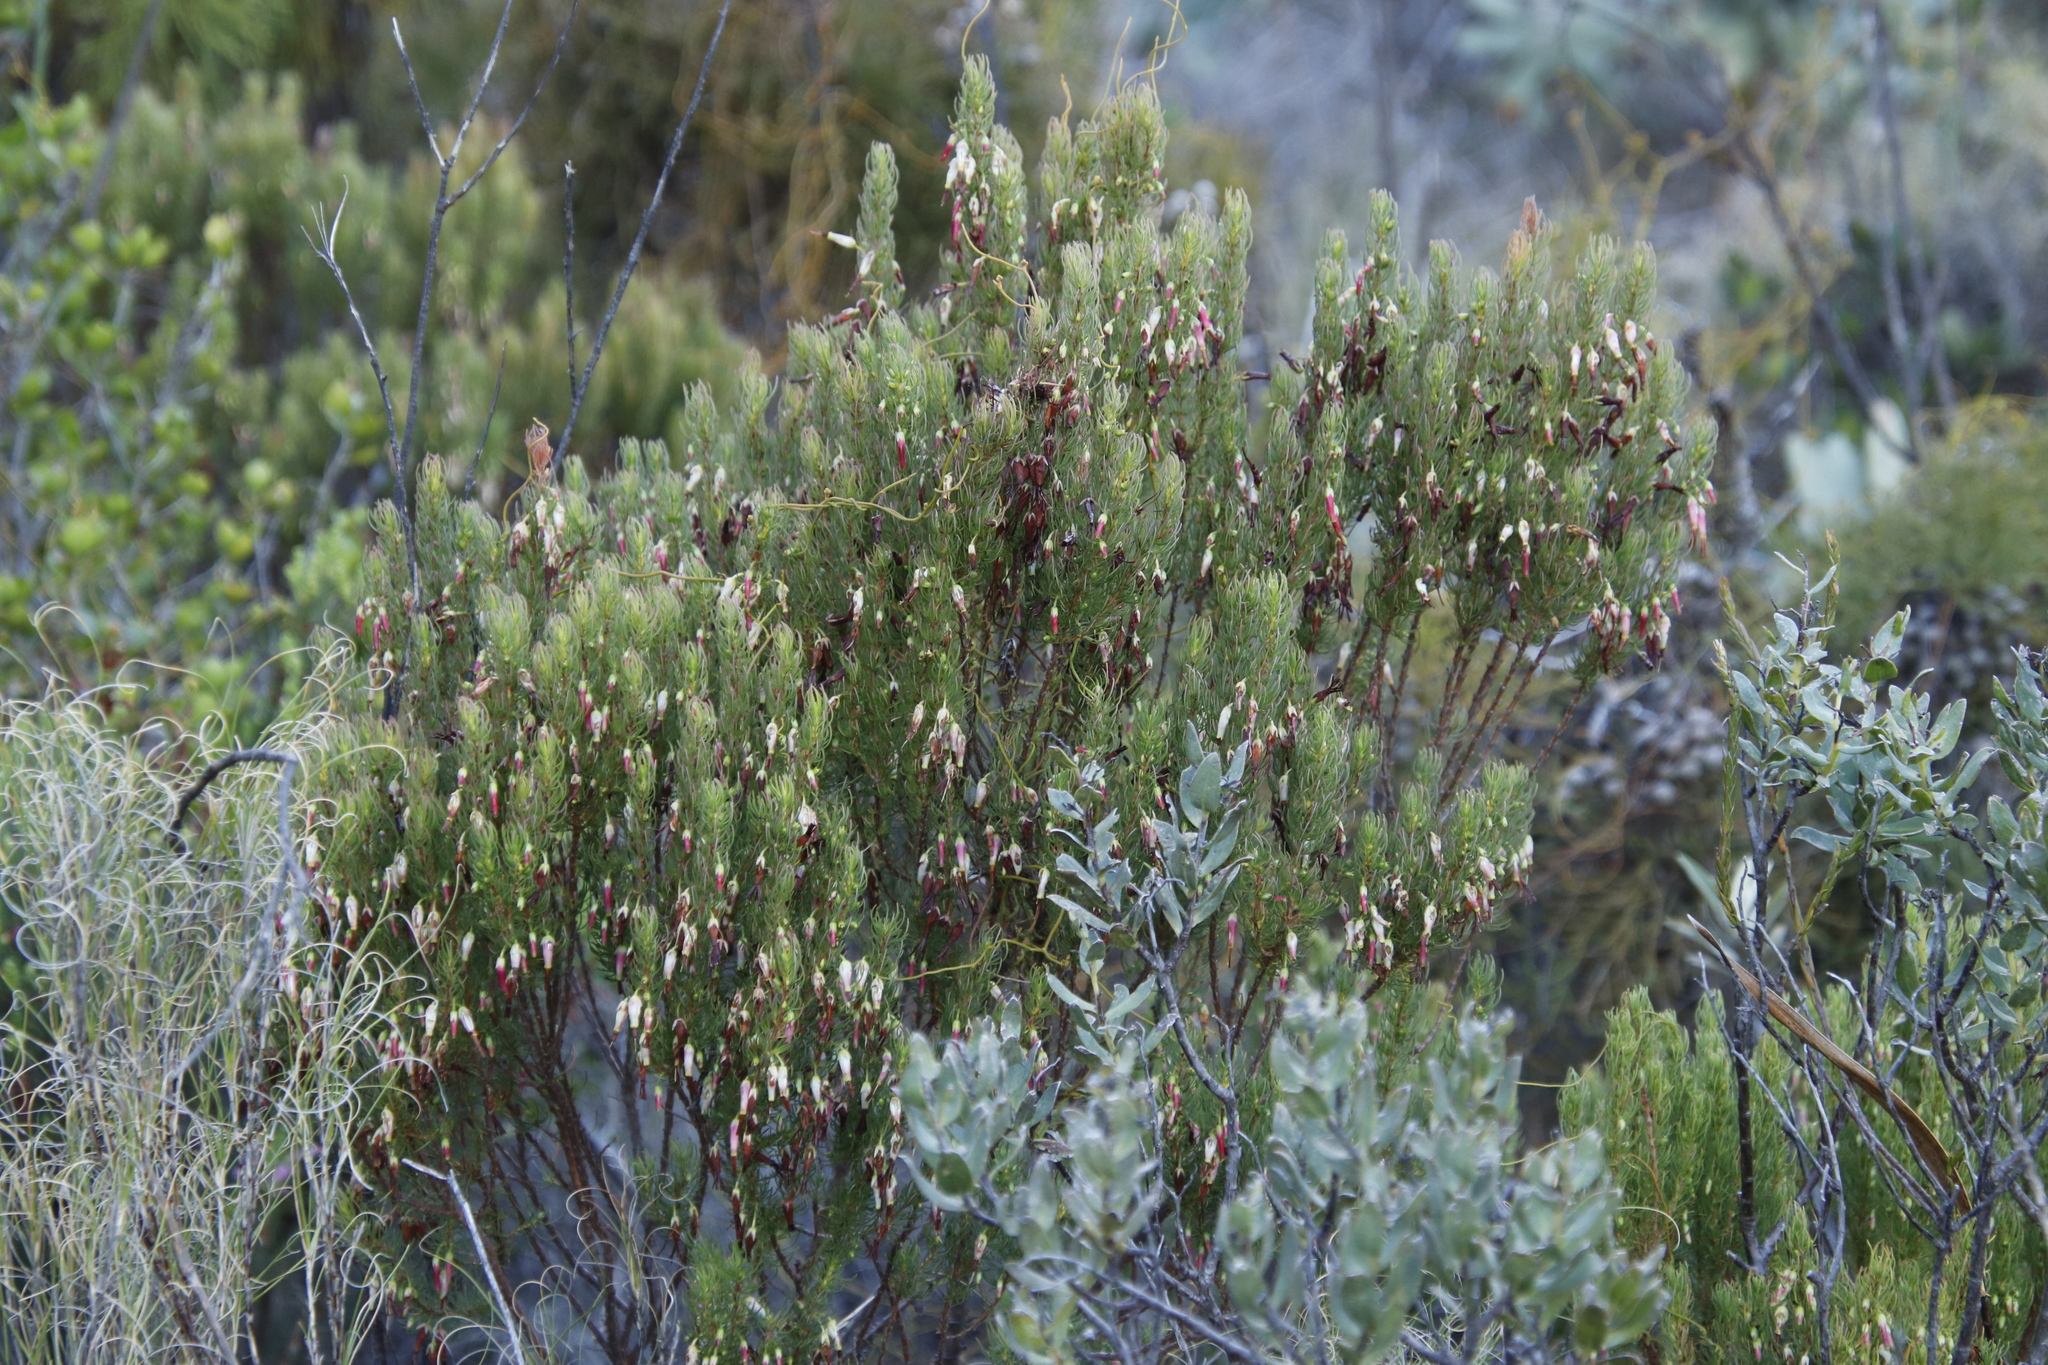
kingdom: Plantae
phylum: Tracheophyta
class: Magnoliopsida
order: Ericales
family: Ericaceae
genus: Erica
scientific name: Erica plukenetii
